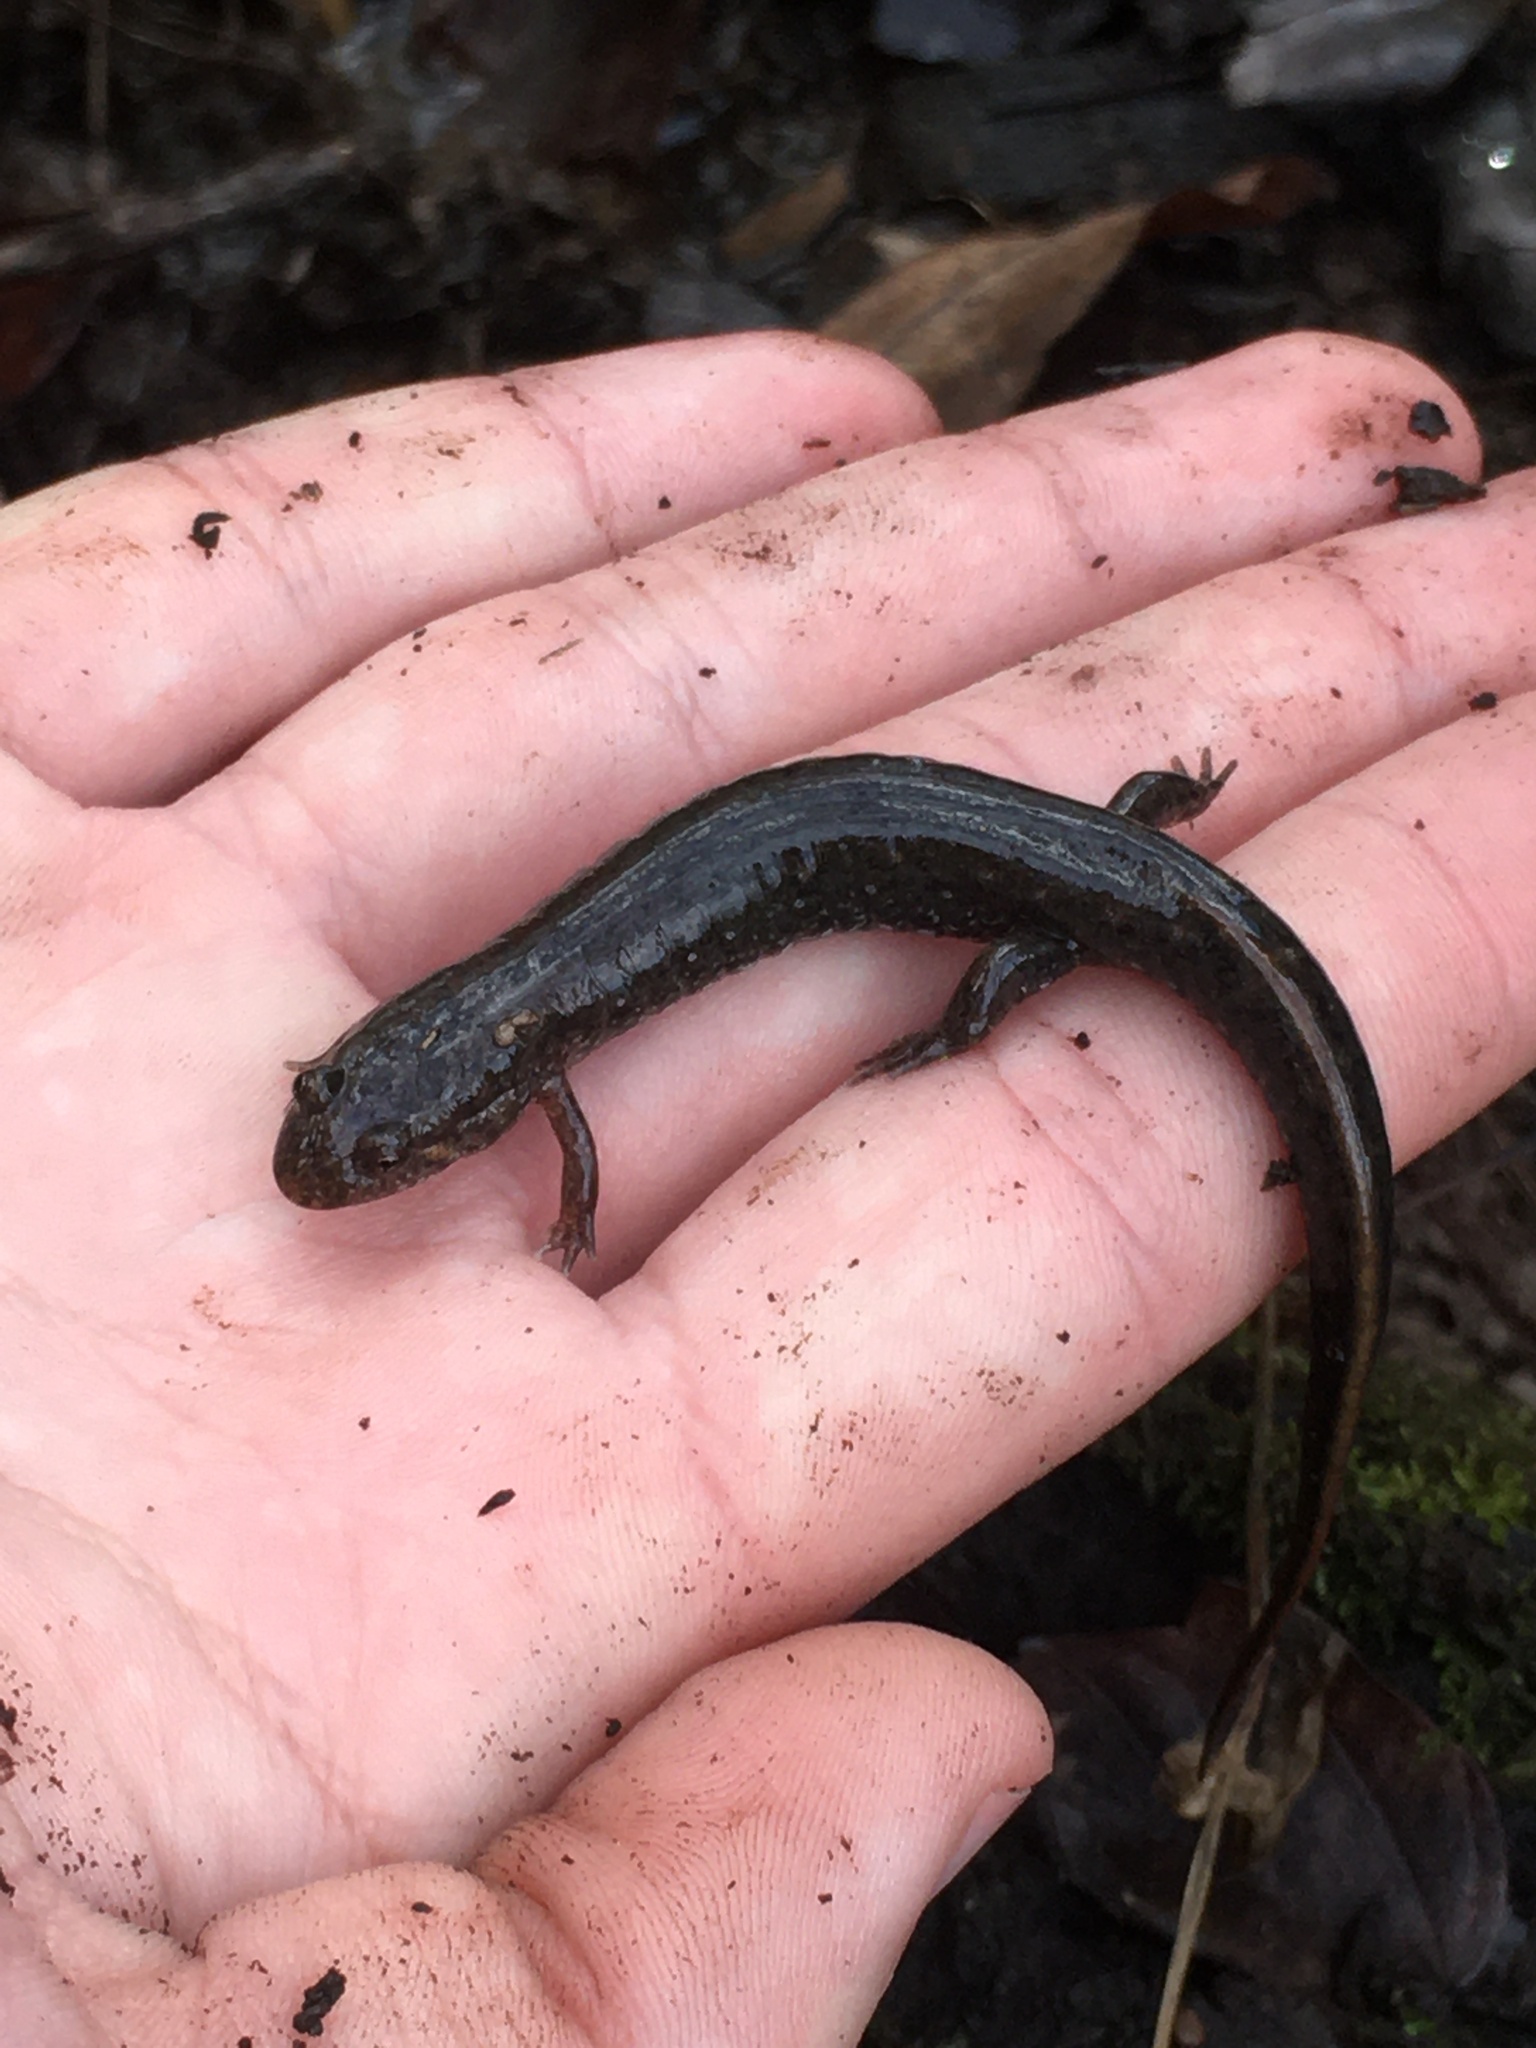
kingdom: Animalia
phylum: Chordata
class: Amphibia
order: Caudata
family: Plethodontidae
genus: Desmognathus
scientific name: Desmognathus
